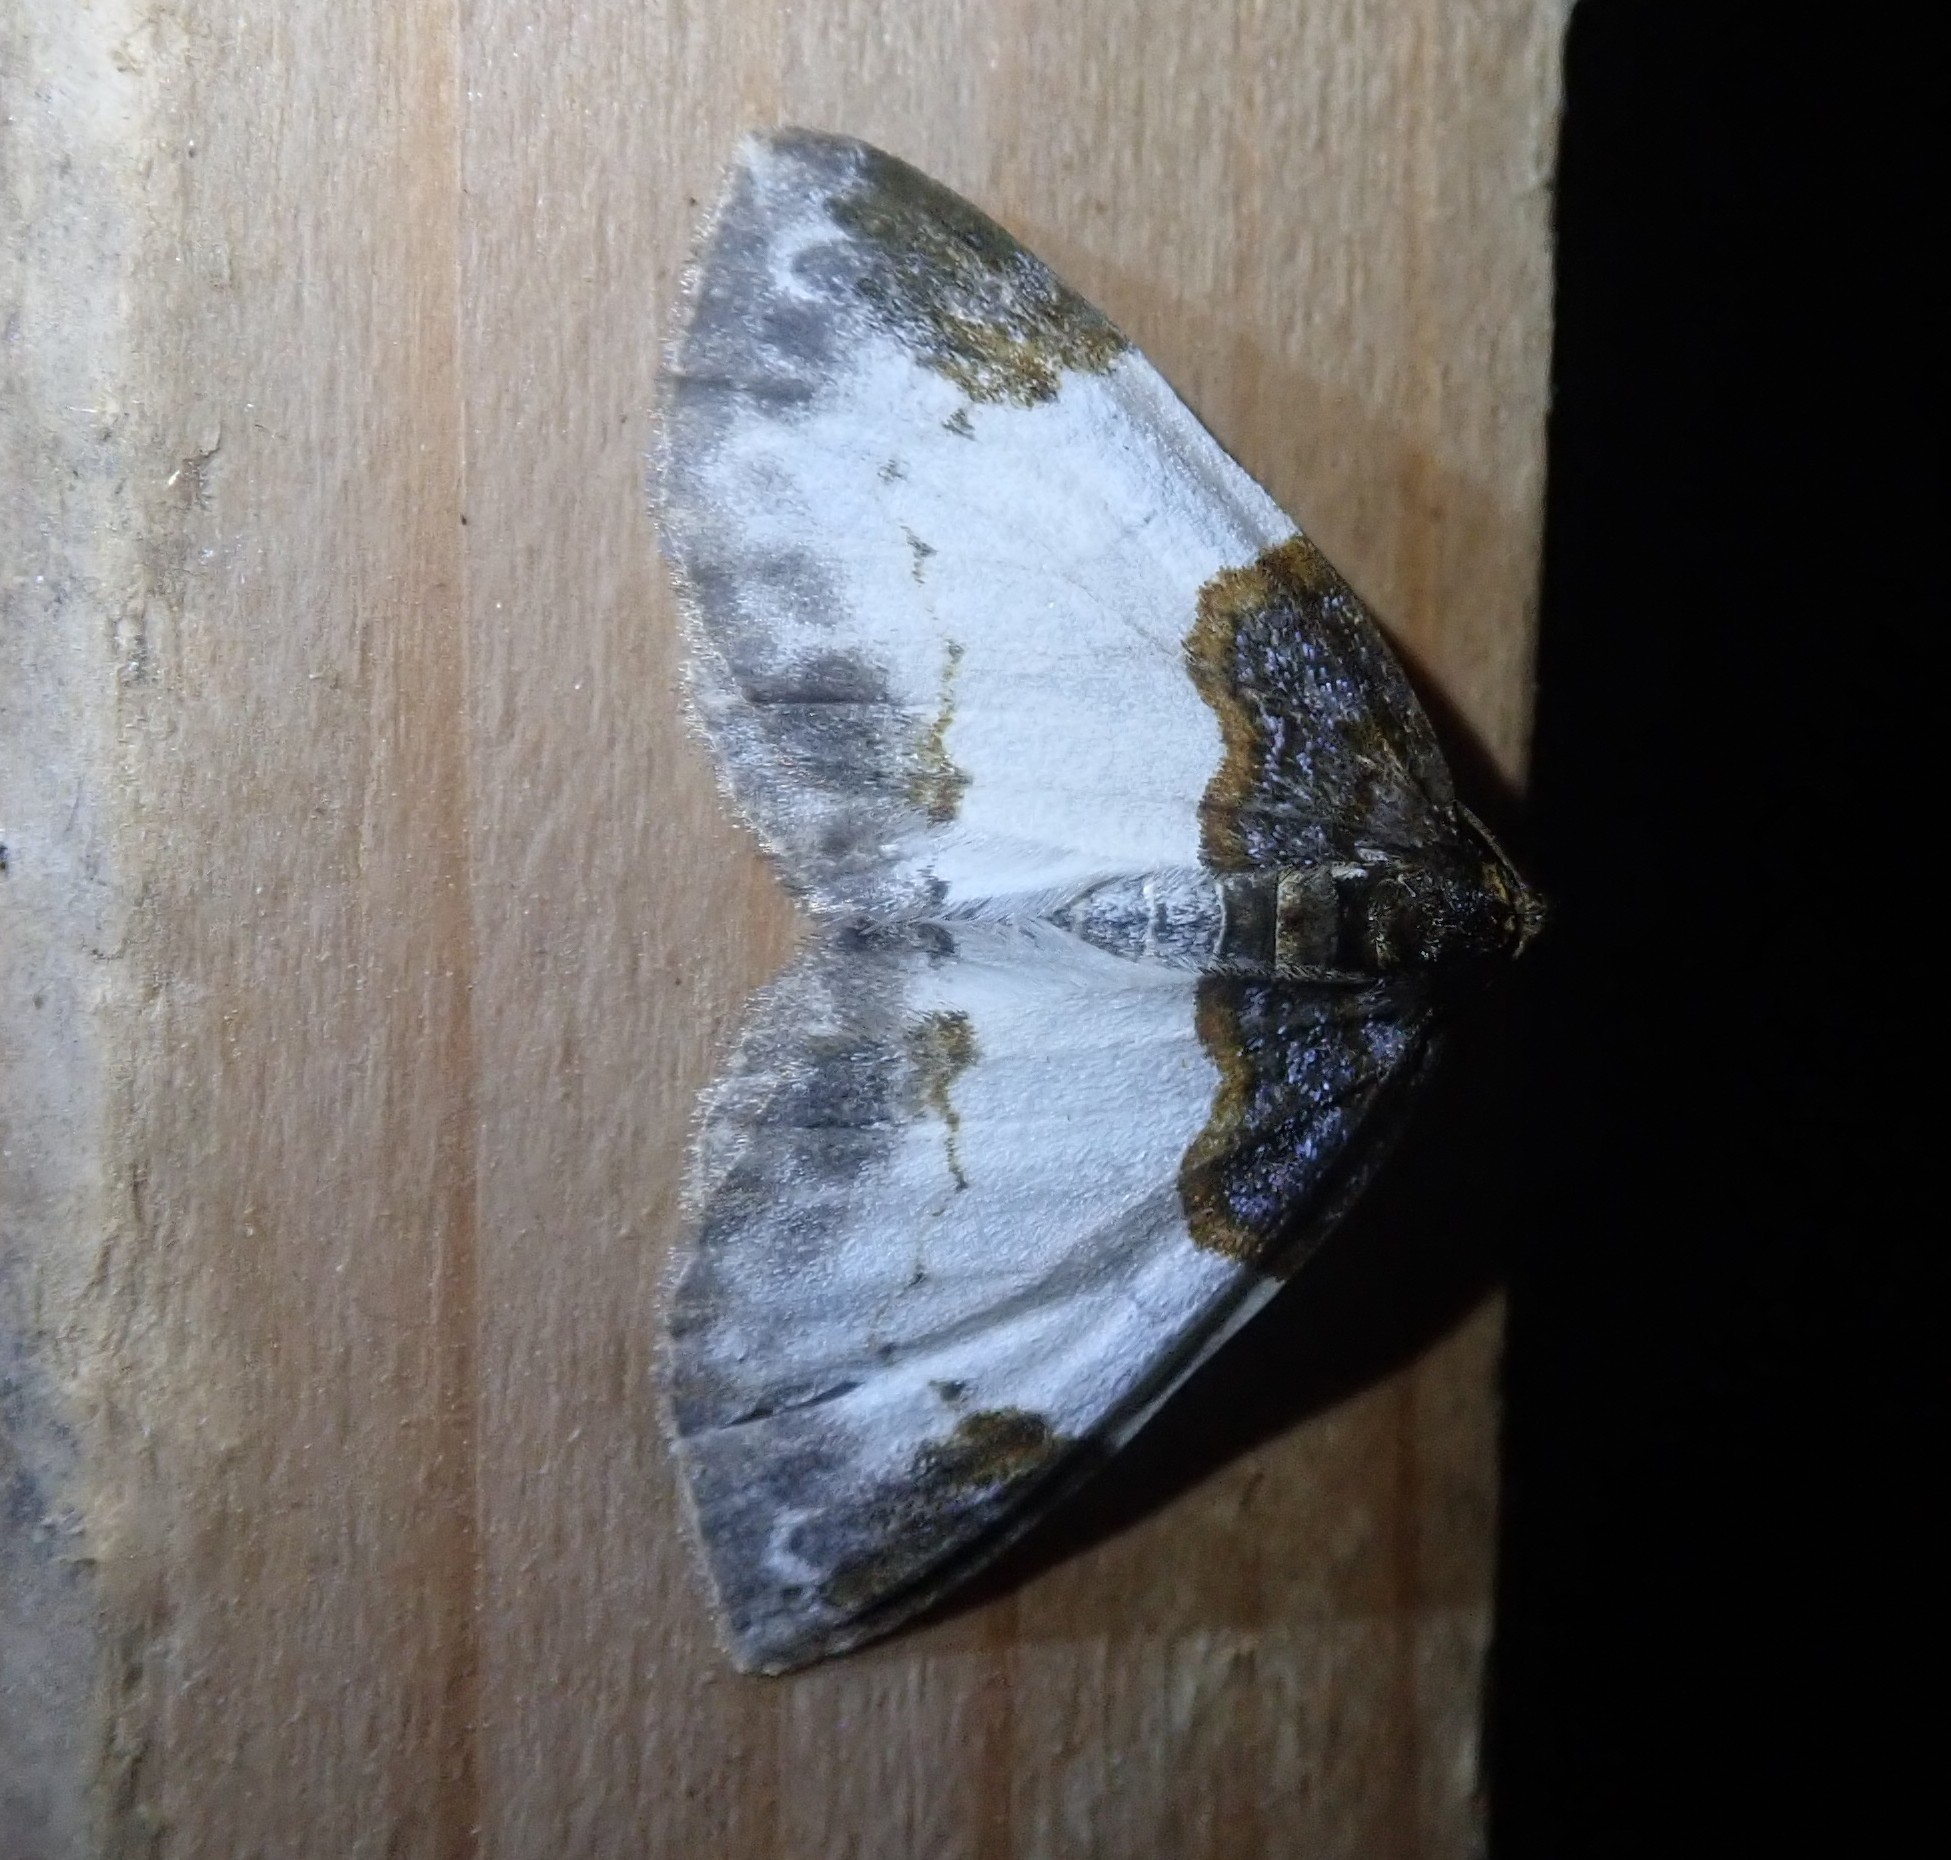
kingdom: Animalia
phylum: Arthropoda
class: Insecta
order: Lepidoptera
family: Geometridae
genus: Mesoleuca
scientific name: Mesoleuca albicillata
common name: Beautiful carpet
